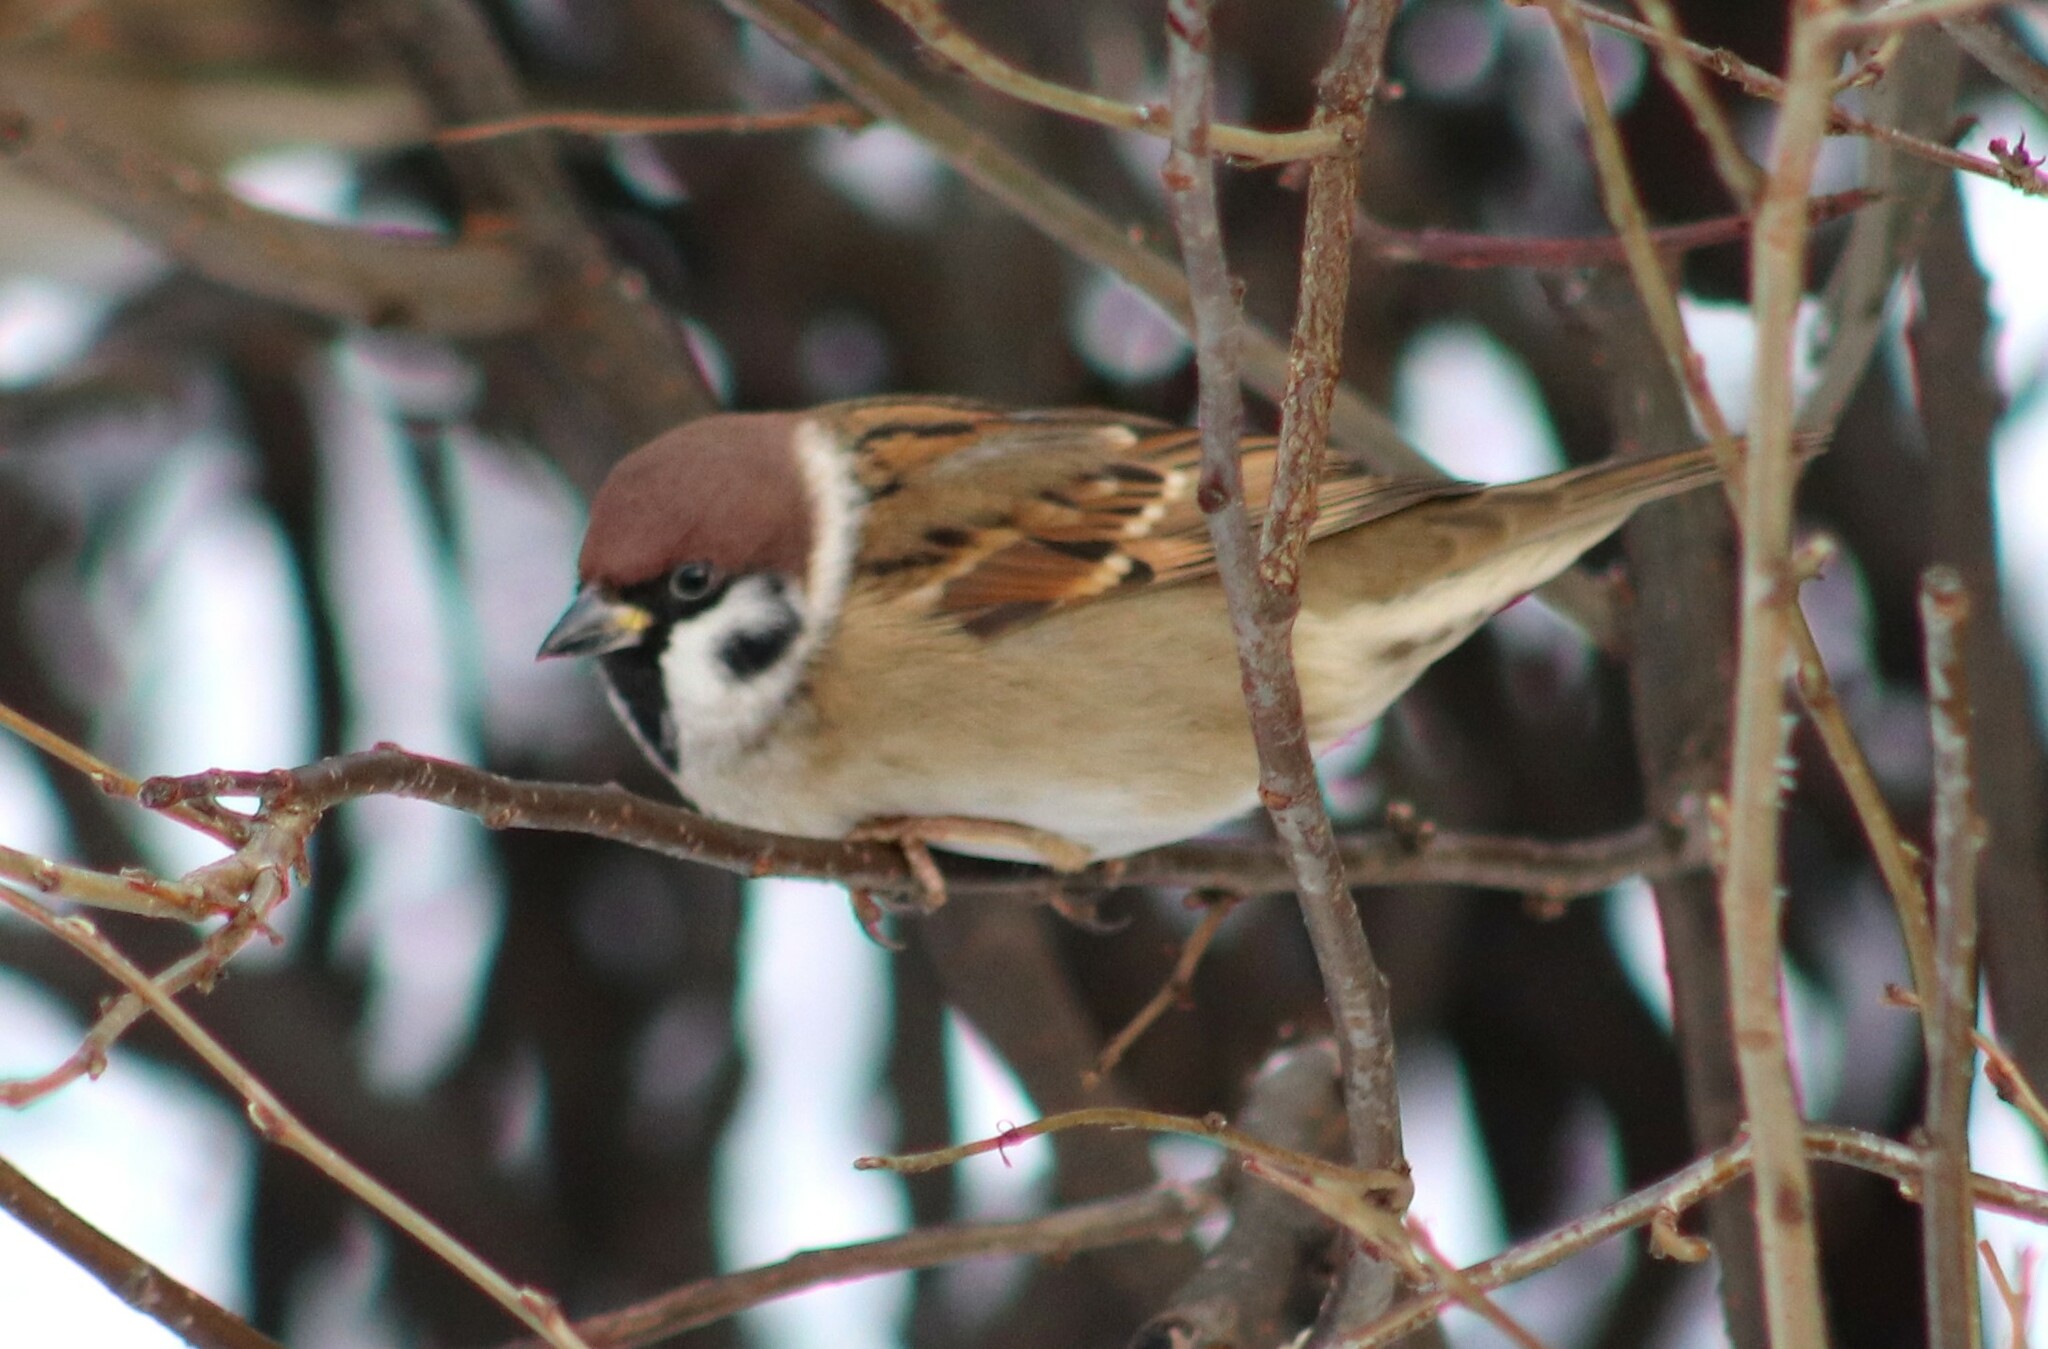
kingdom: Animalia
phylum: Chordata
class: Aves
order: Passeriformes
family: Passeridae
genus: Passer
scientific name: Passer montanus
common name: Eurasian tree sparrow
